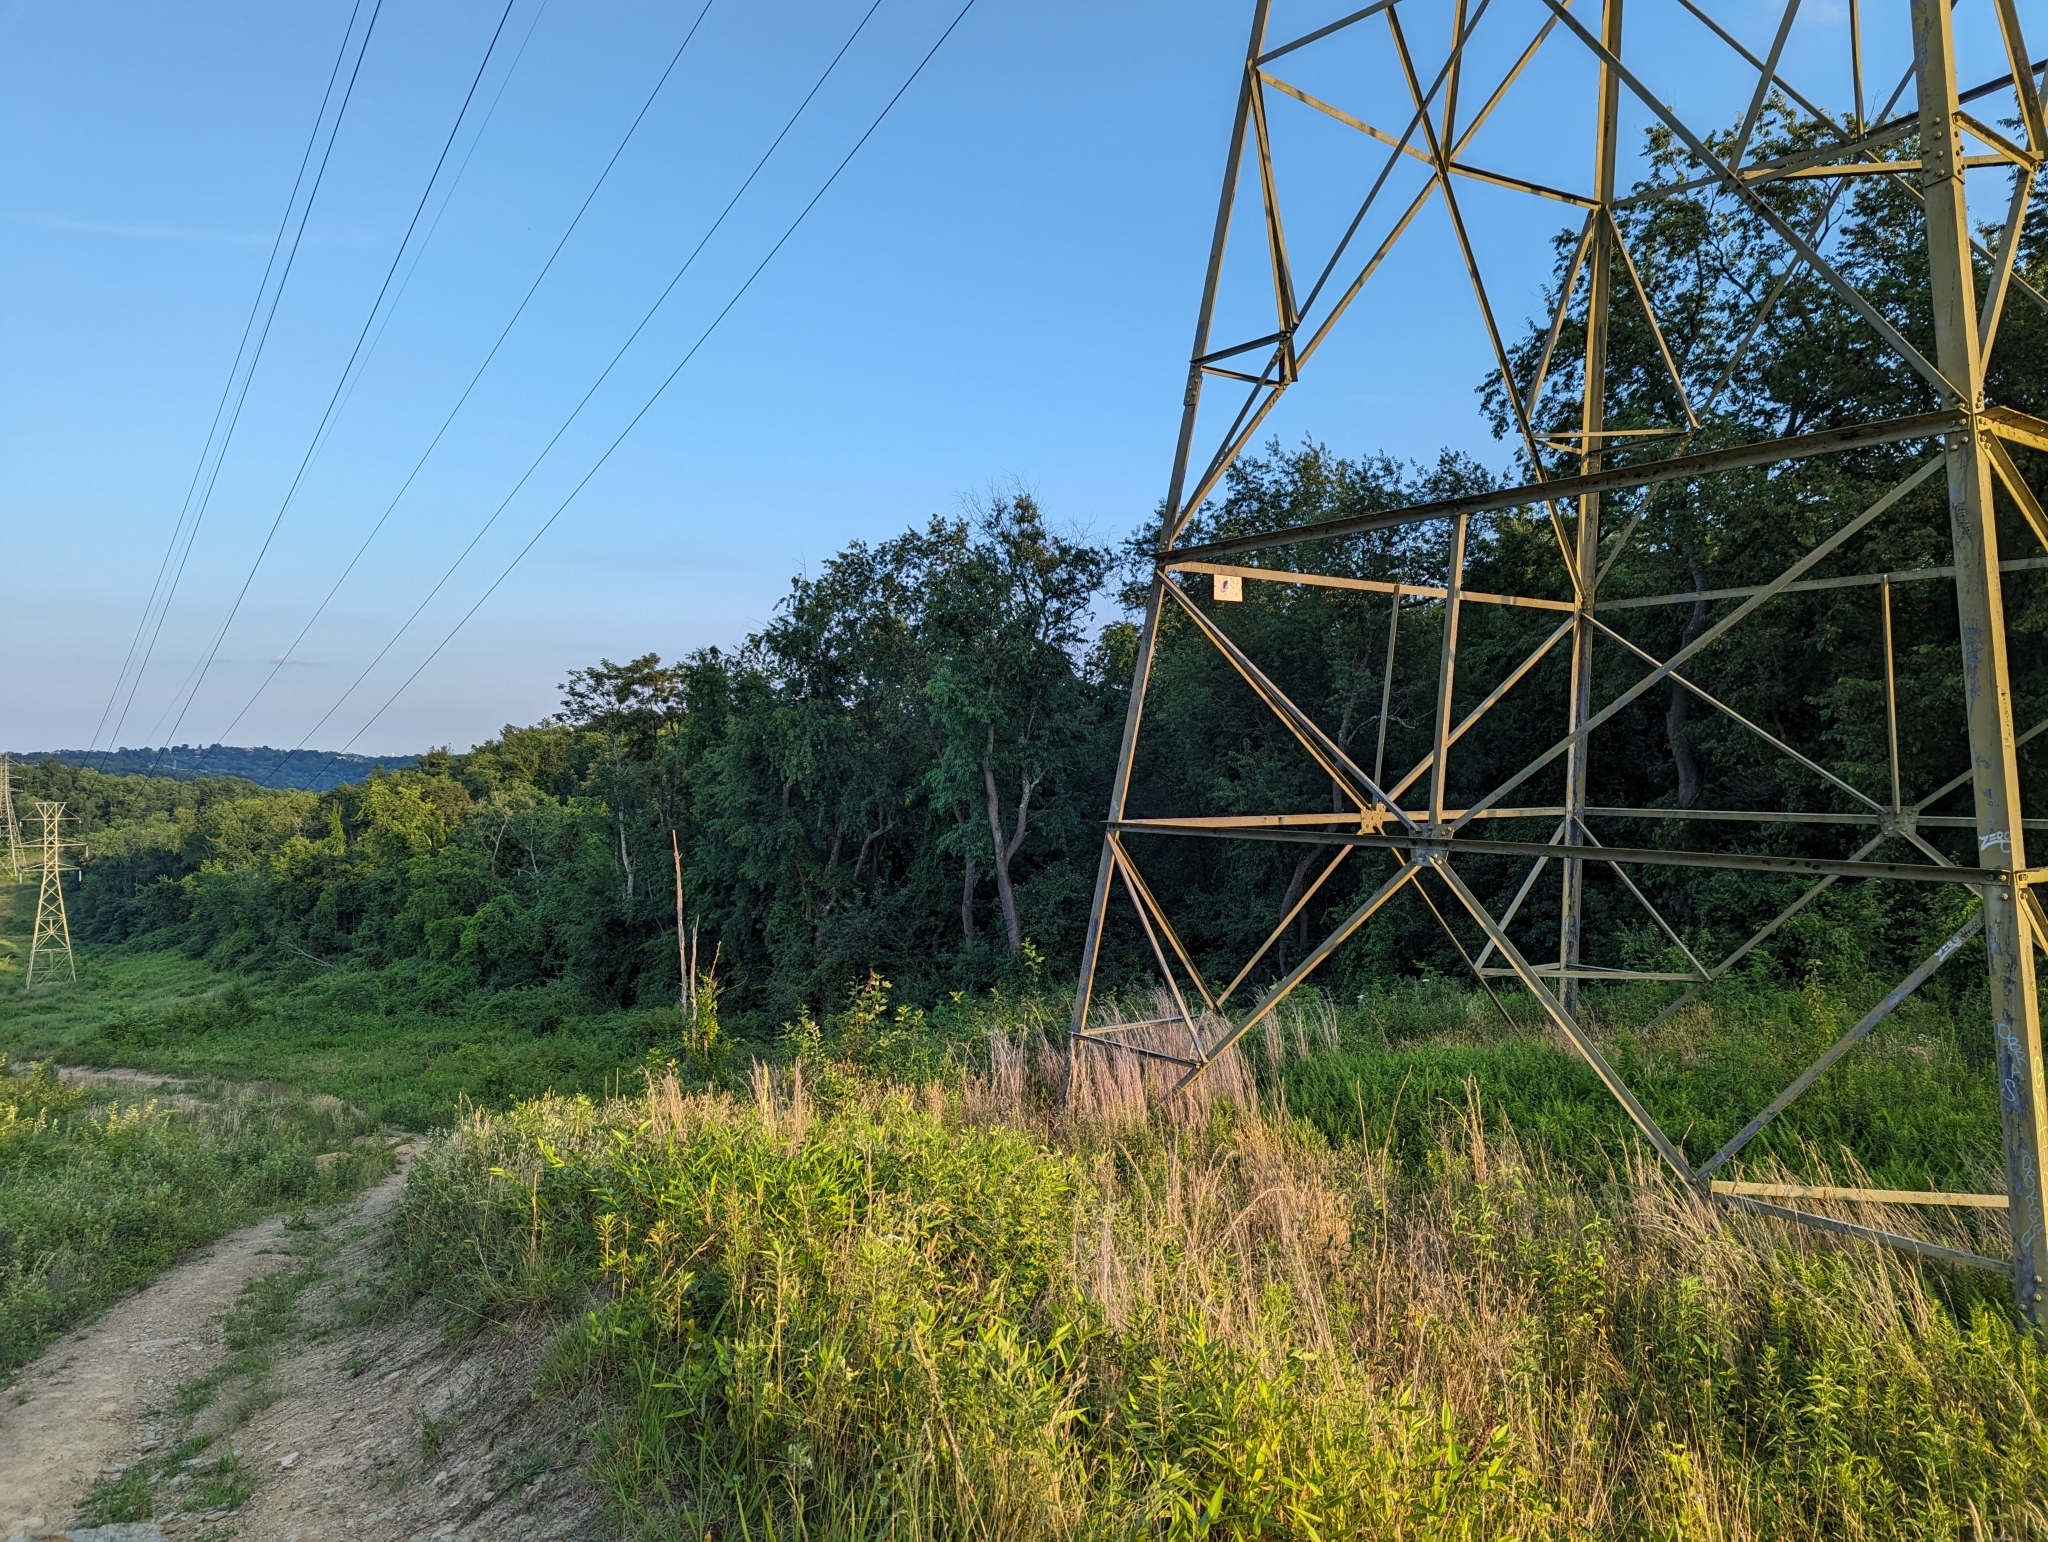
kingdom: Animalia
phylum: Chordata
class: Aves
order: Passeriformes
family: Cardinalidae
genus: Passerina
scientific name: Passerina cyanea
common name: Indigo bunting
